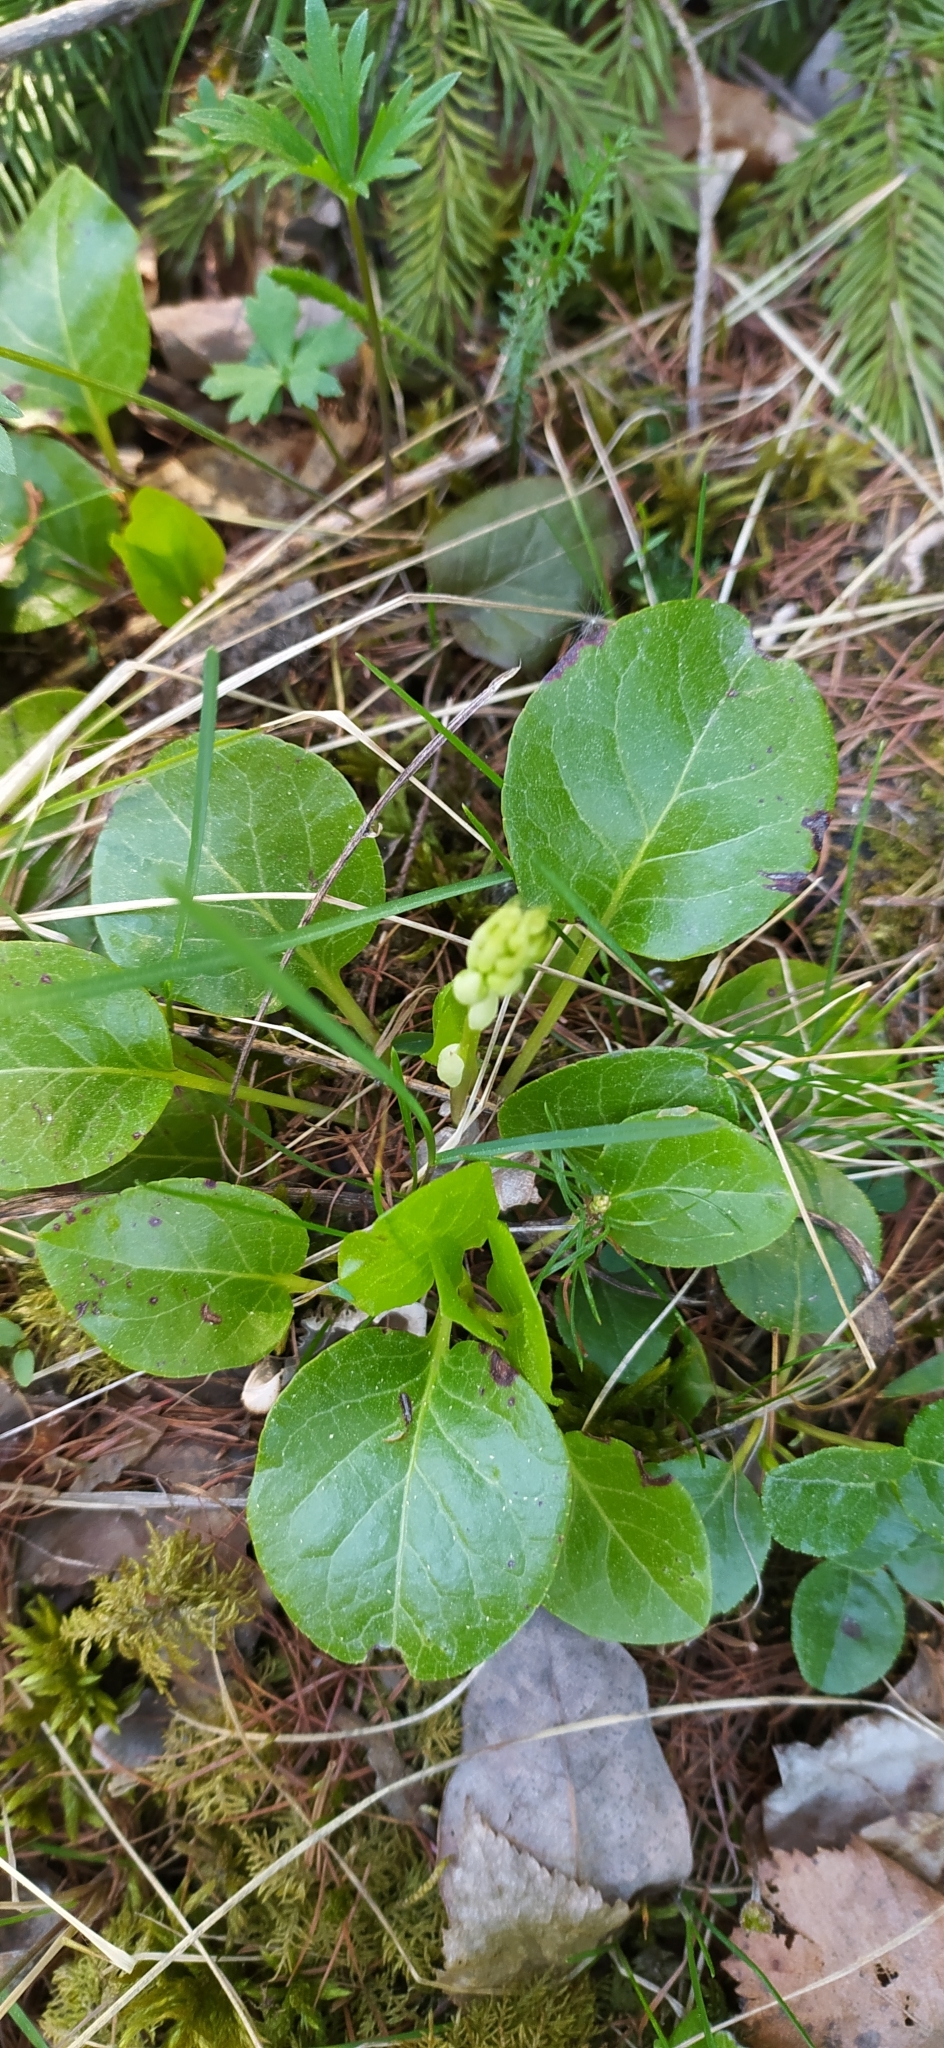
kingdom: Plantae
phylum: Tracheophyta
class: Magnoliopsida
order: Ericales
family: Ericaceae
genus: Pyrola
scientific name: Pyrola rotundifolia
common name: Round-leaved wintergreen
